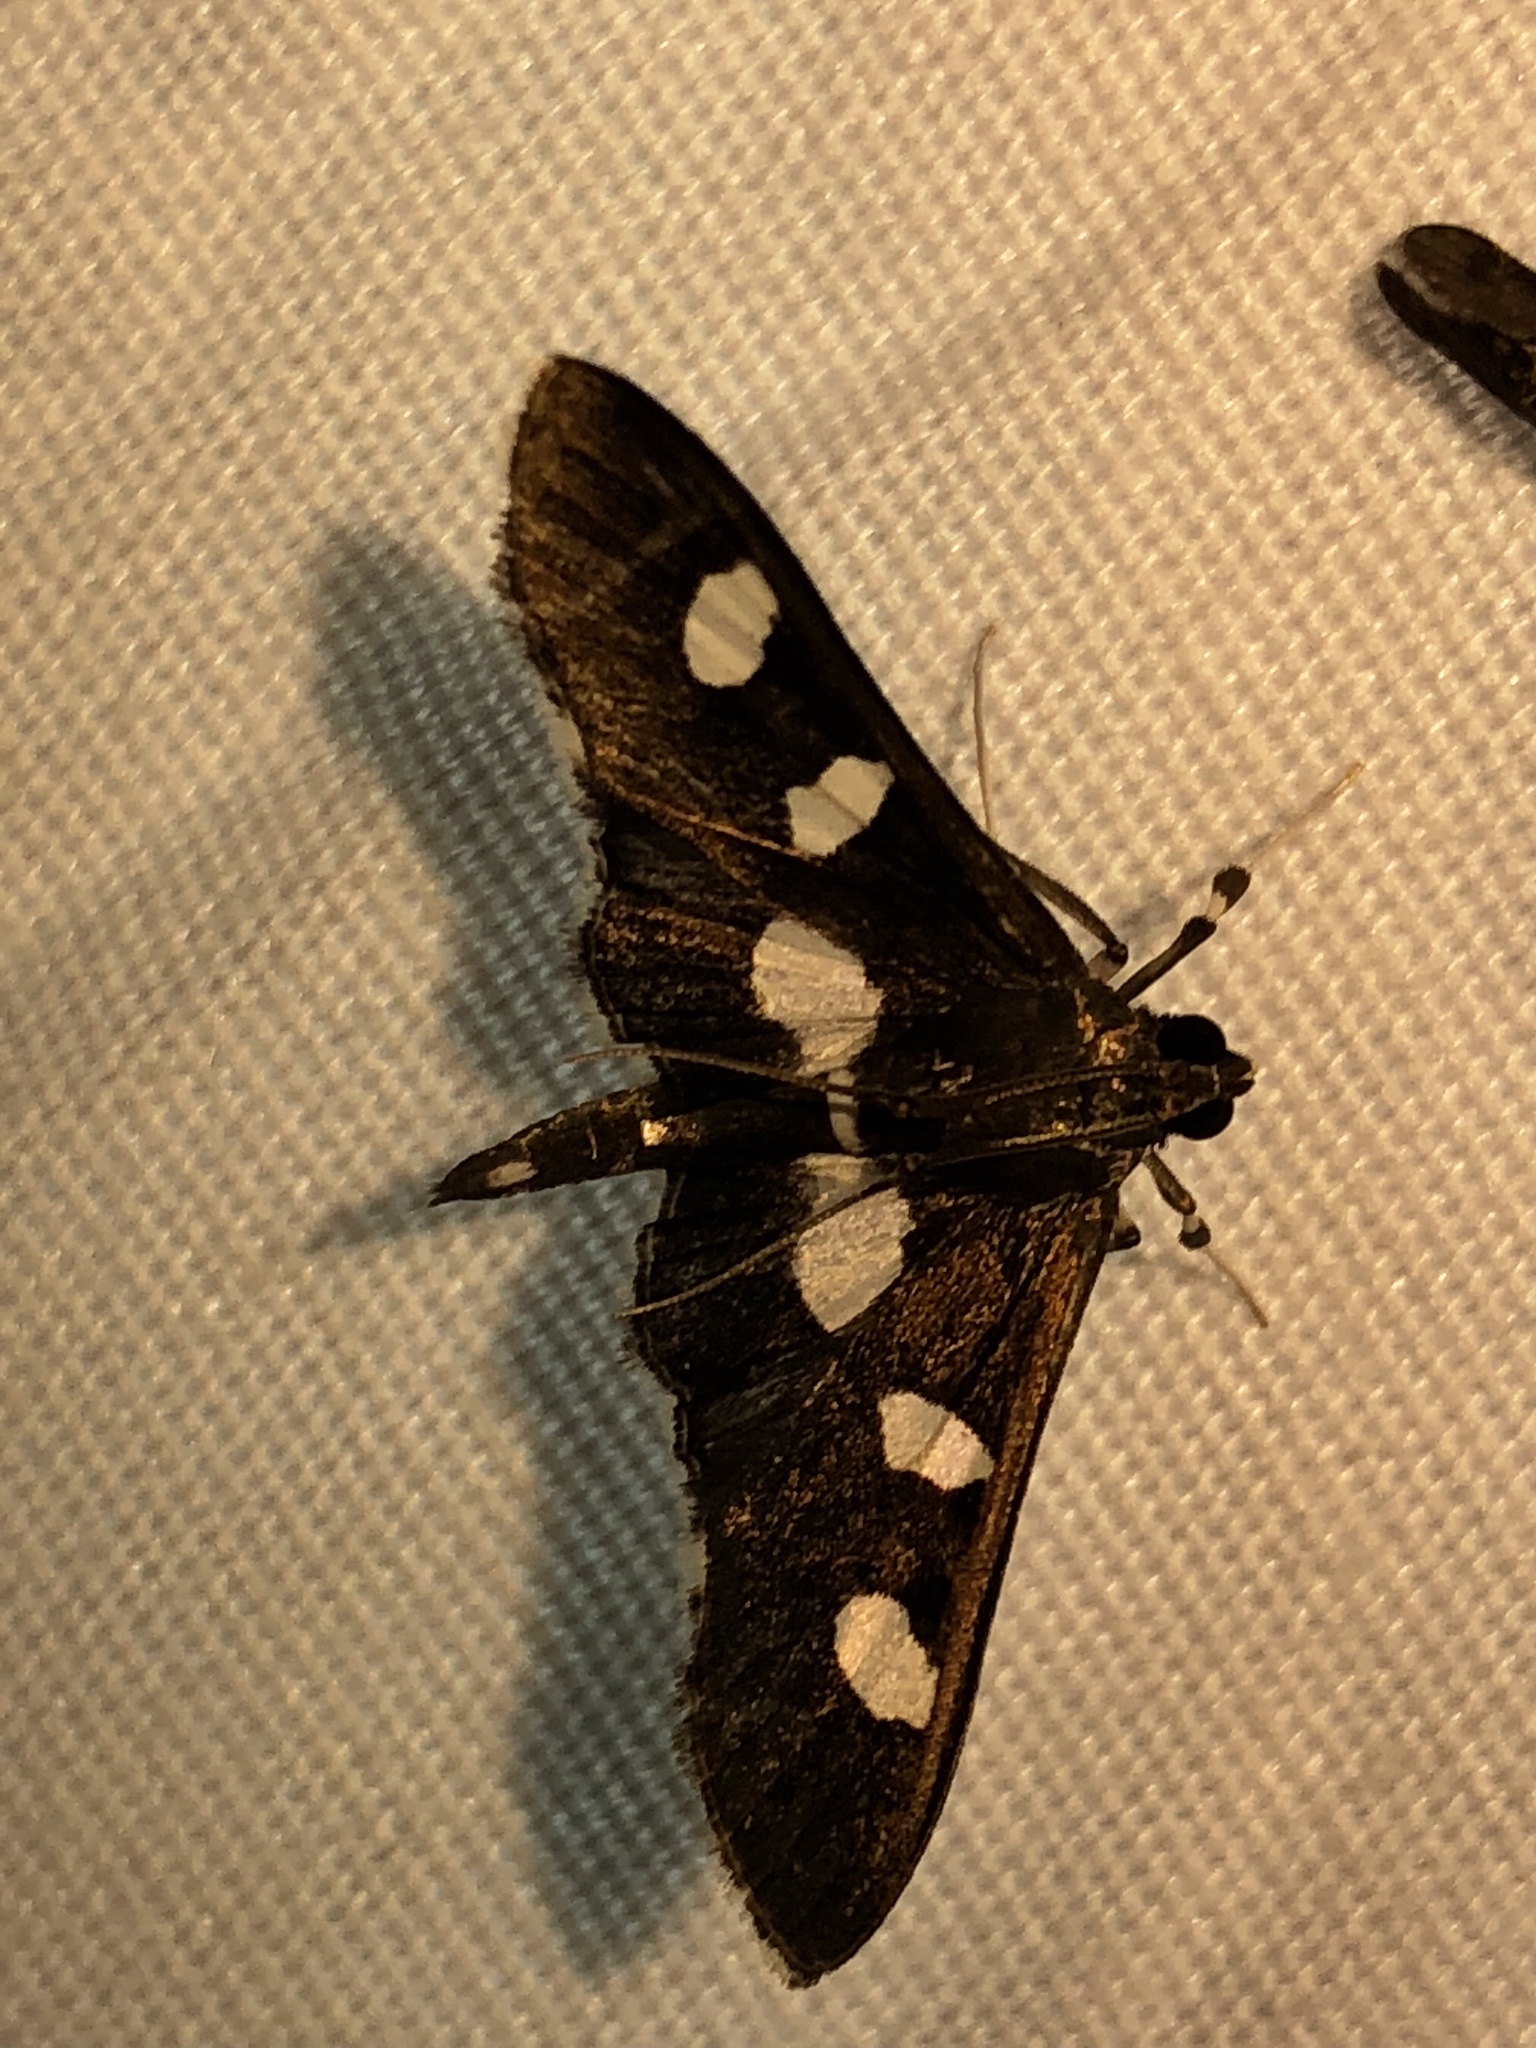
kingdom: Animalia
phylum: Arthropoda
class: Insecta
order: Lepidoptera
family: Crambidae
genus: Desmia
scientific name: Desmia
